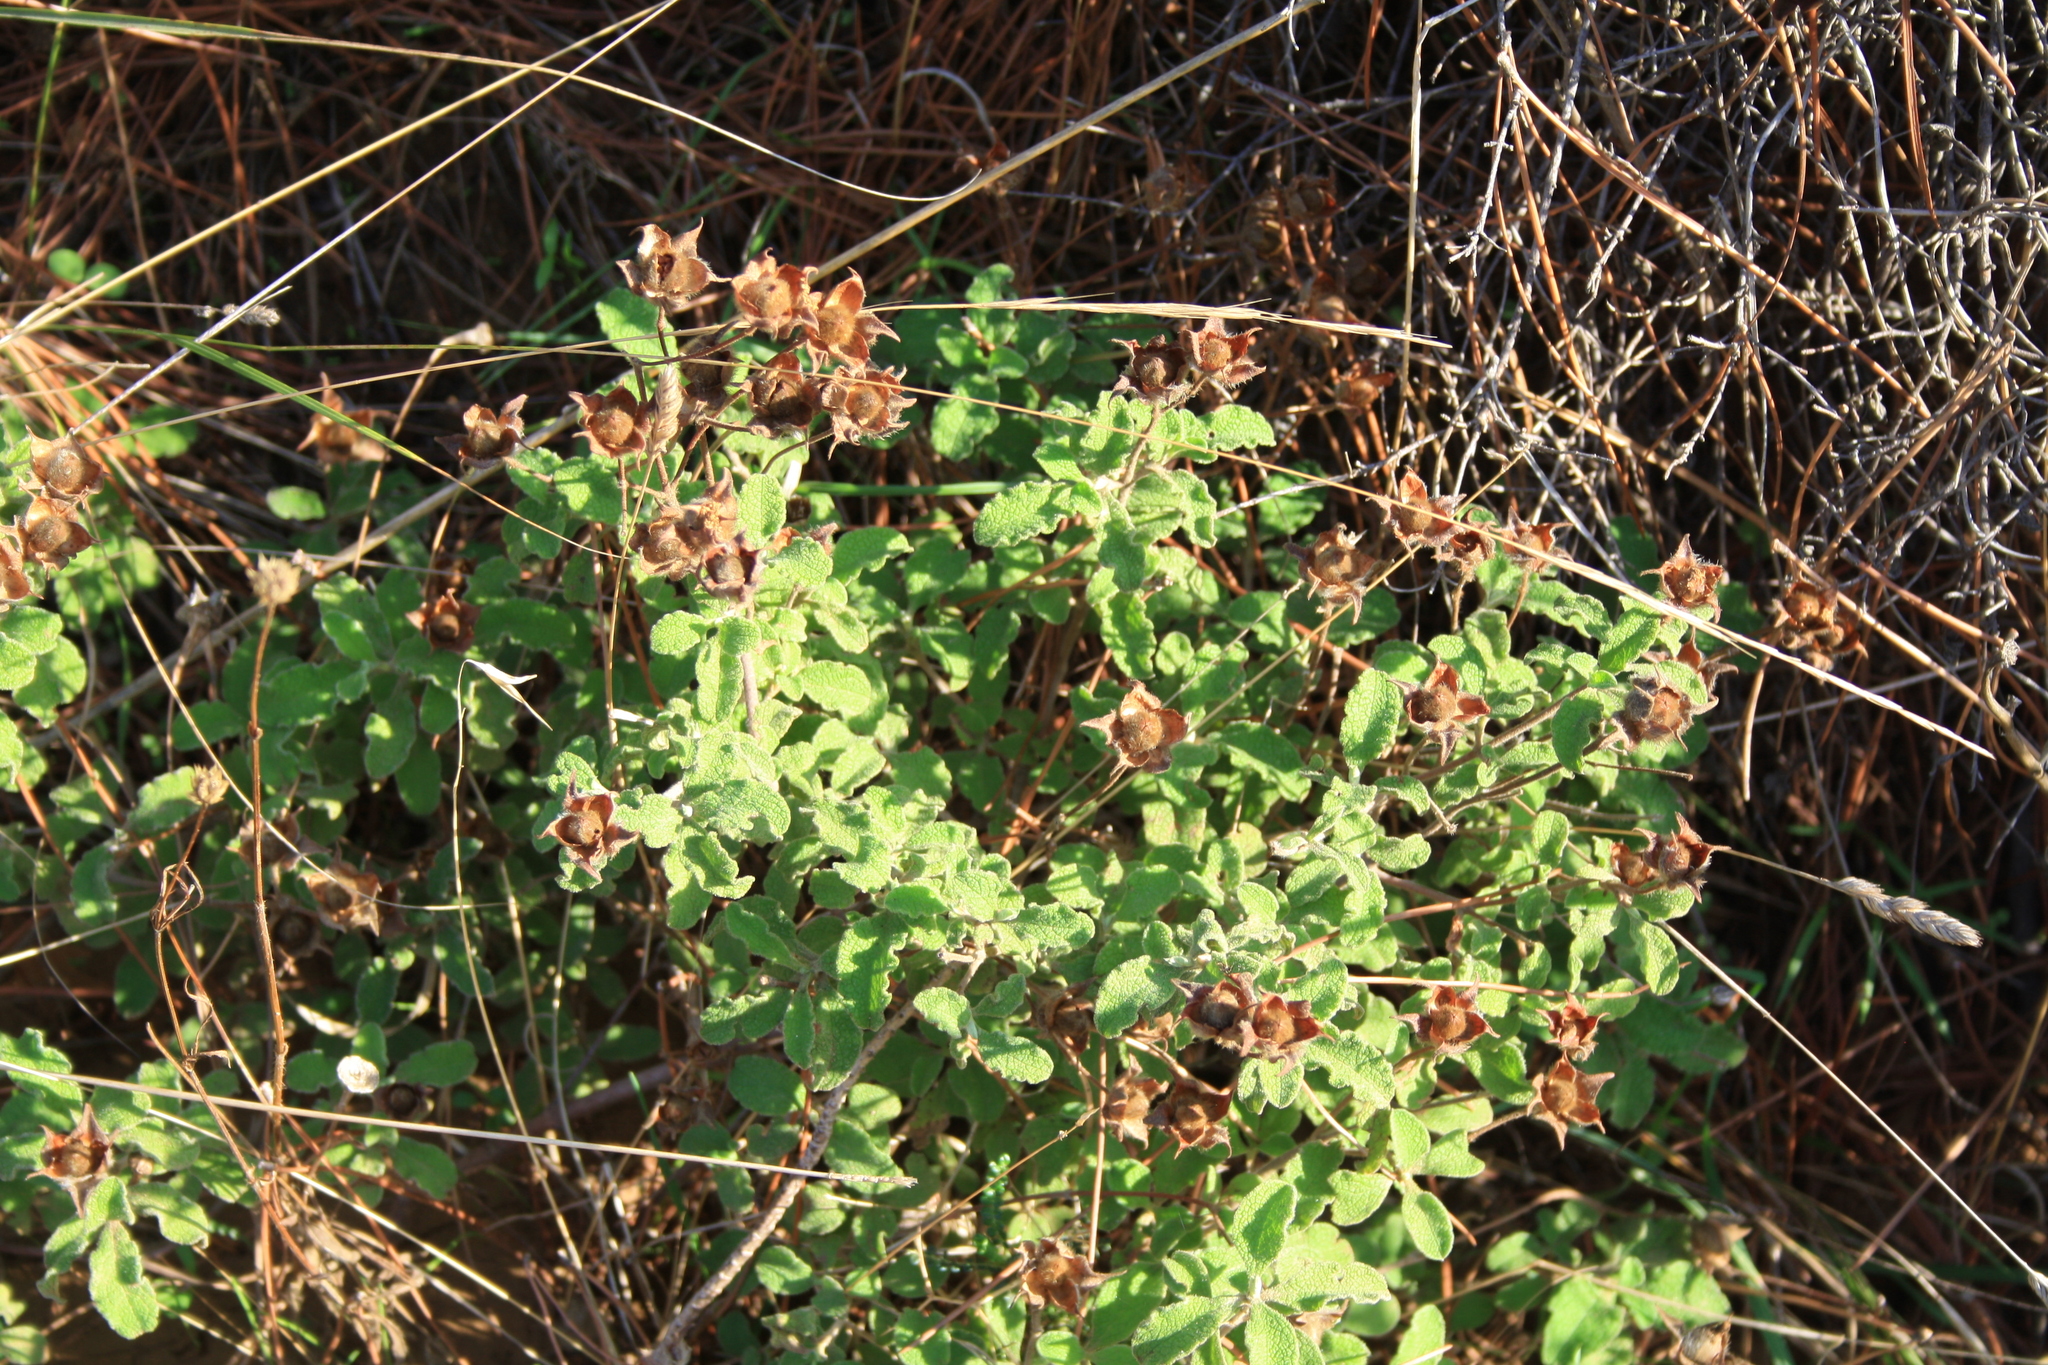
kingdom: Plantae
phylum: Tracheophyta
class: Magnoliopsida
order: Malvales
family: Cistaceae
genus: Cistus
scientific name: Cistus creticus
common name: Cretan rockrose
